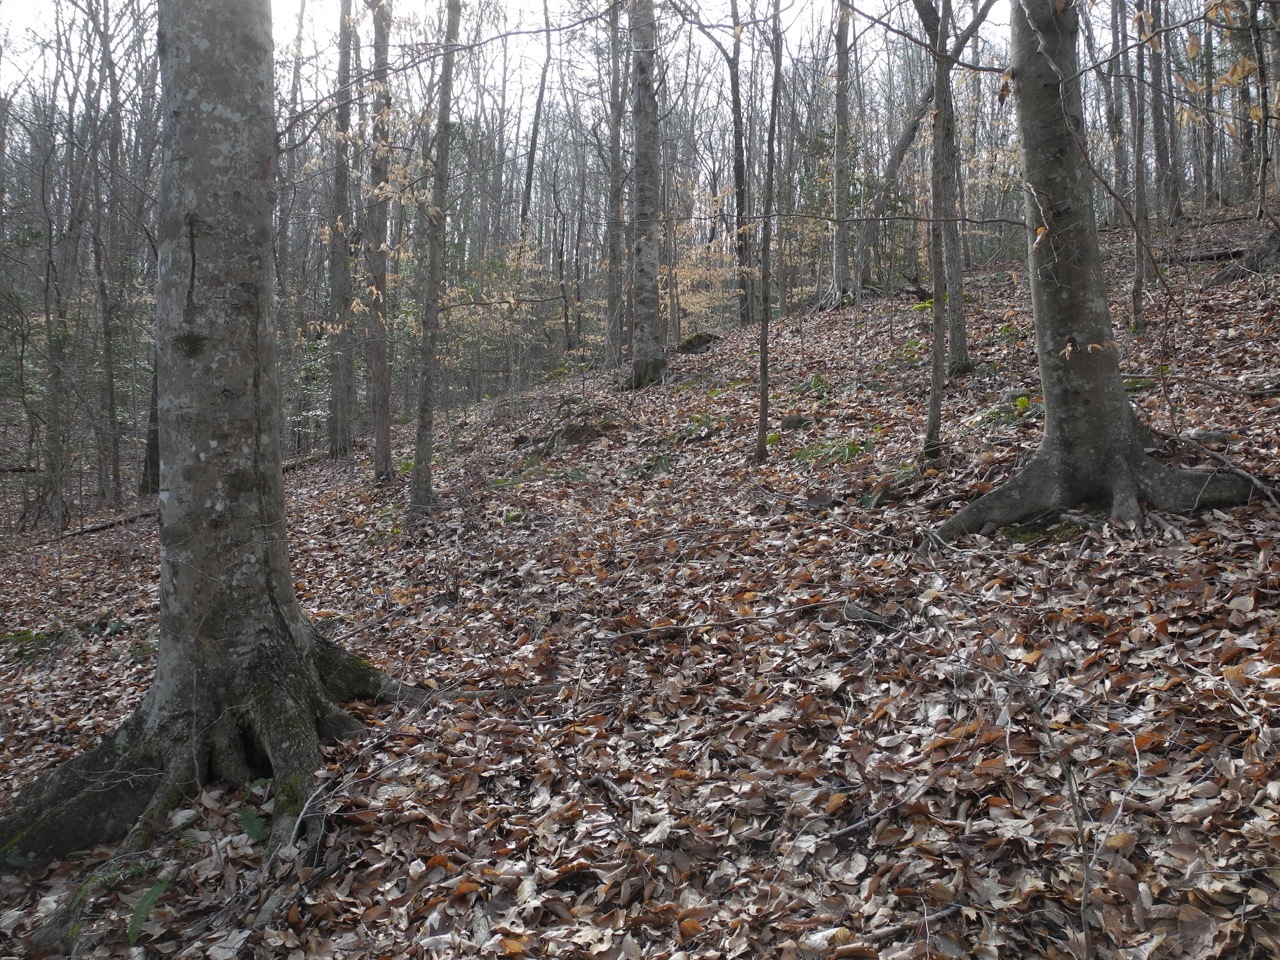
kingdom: Plantae
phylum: Tracheophyta
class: Magnoliopsida
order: Fagales
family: Fagaceae
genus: Fagus
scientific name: Fagus grandifolia
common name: American beech
